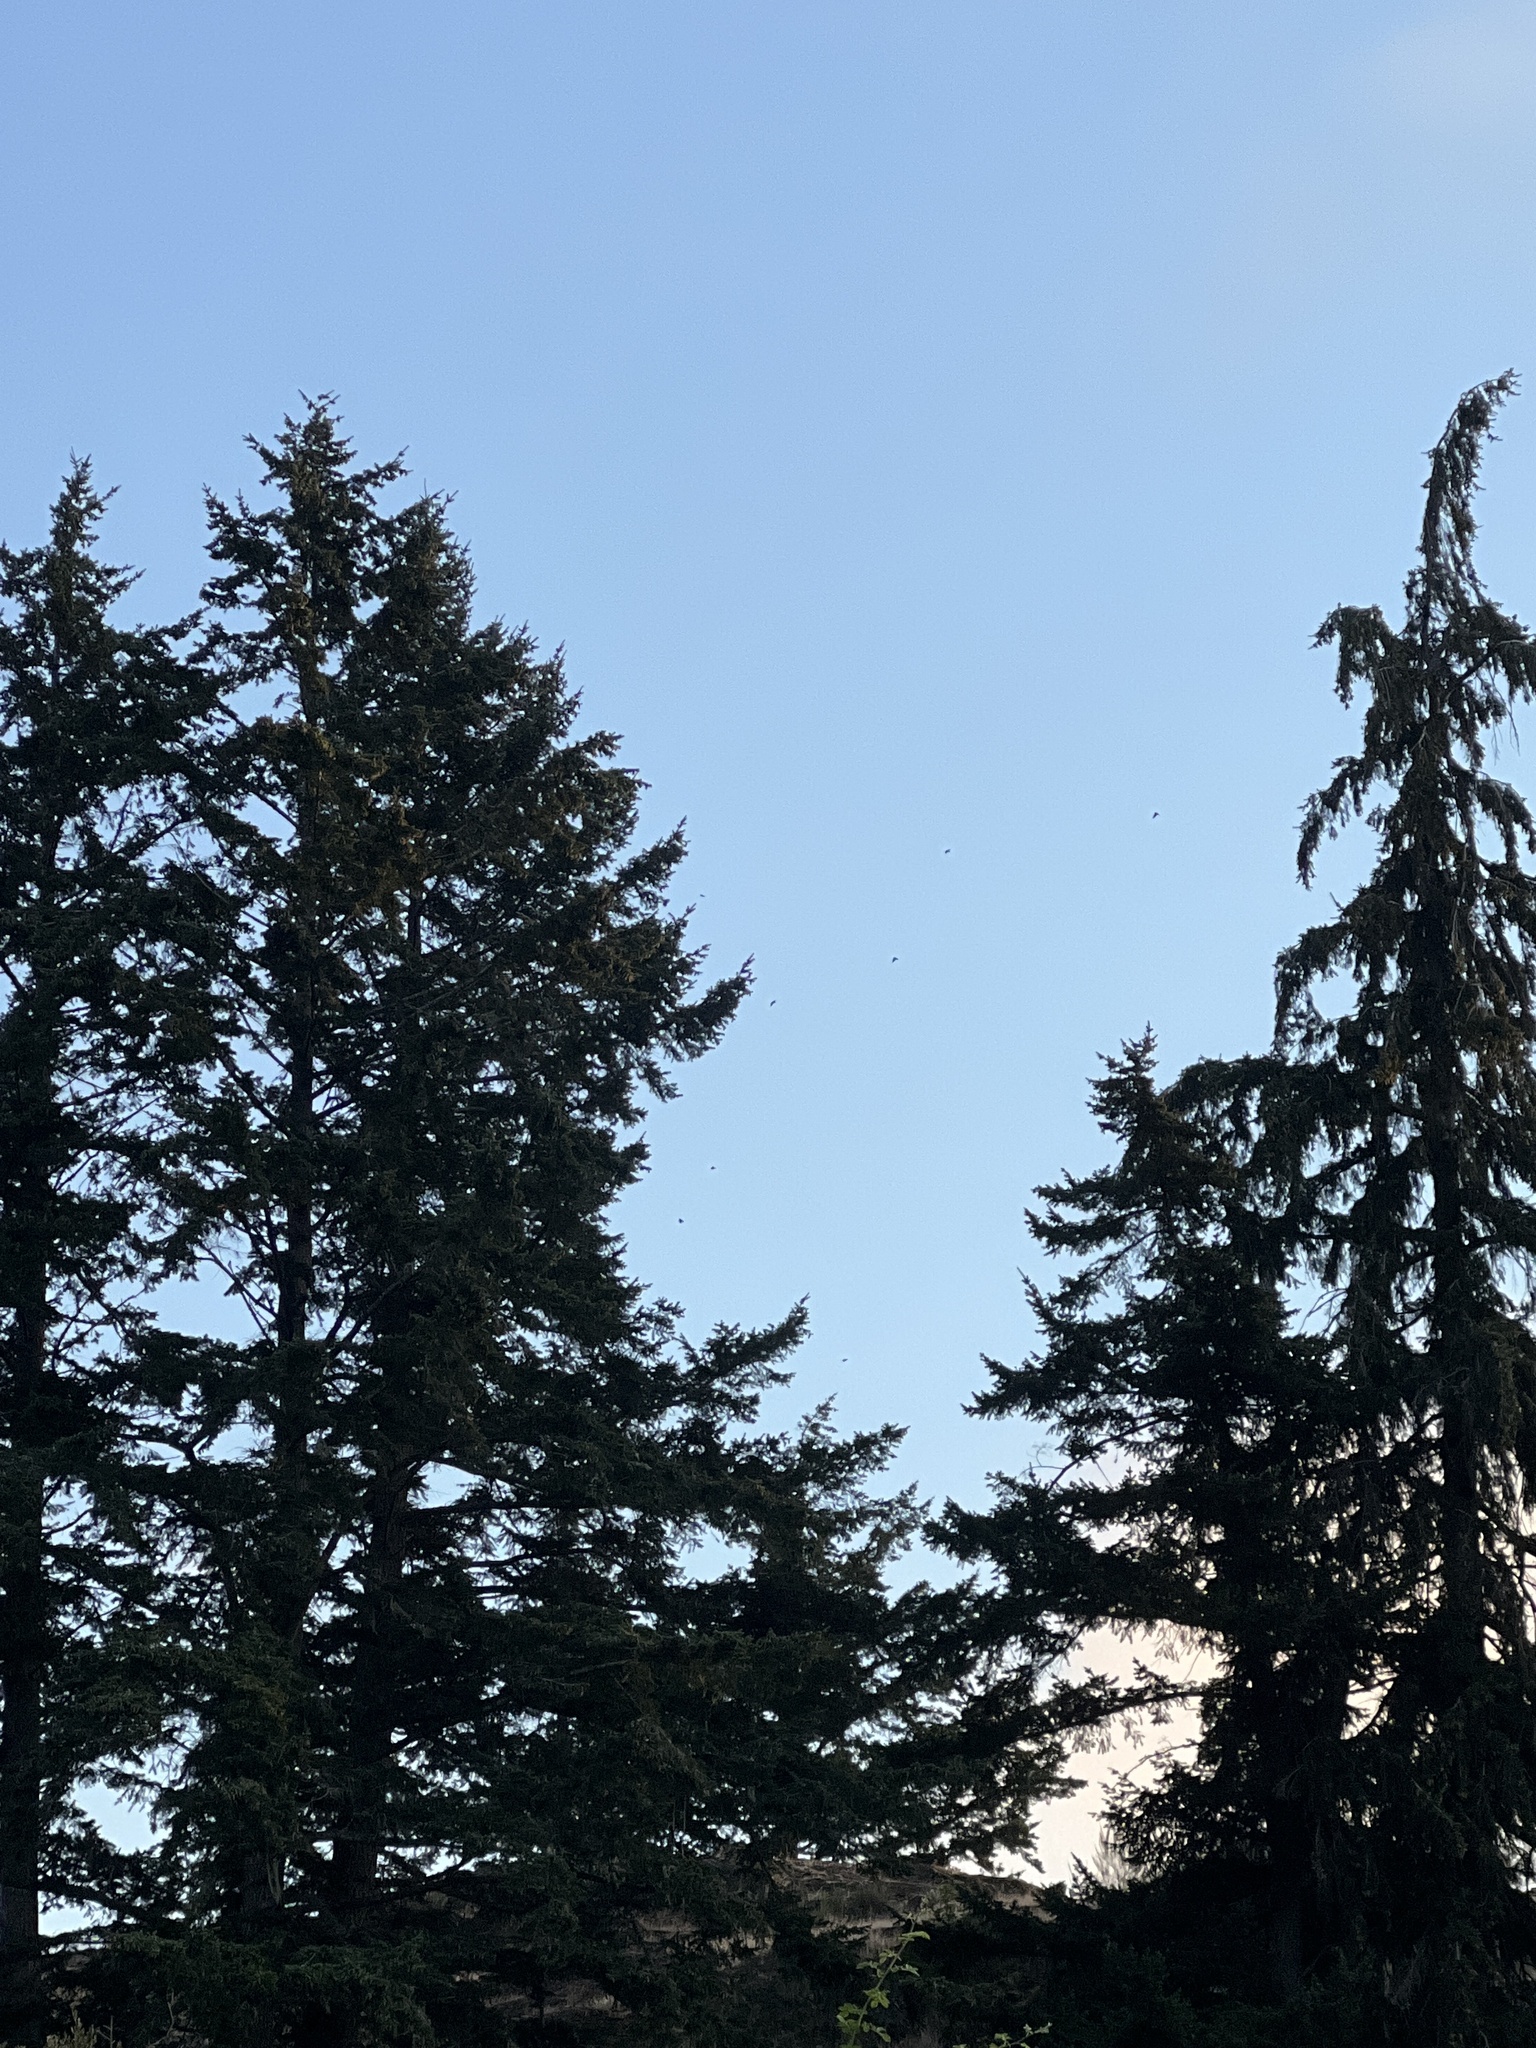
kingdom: Animalia
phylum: Chordata
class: Aves
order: Passeriformes
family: Hirundinidae
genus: Progne
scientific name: Progne subis
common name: Purple martin
